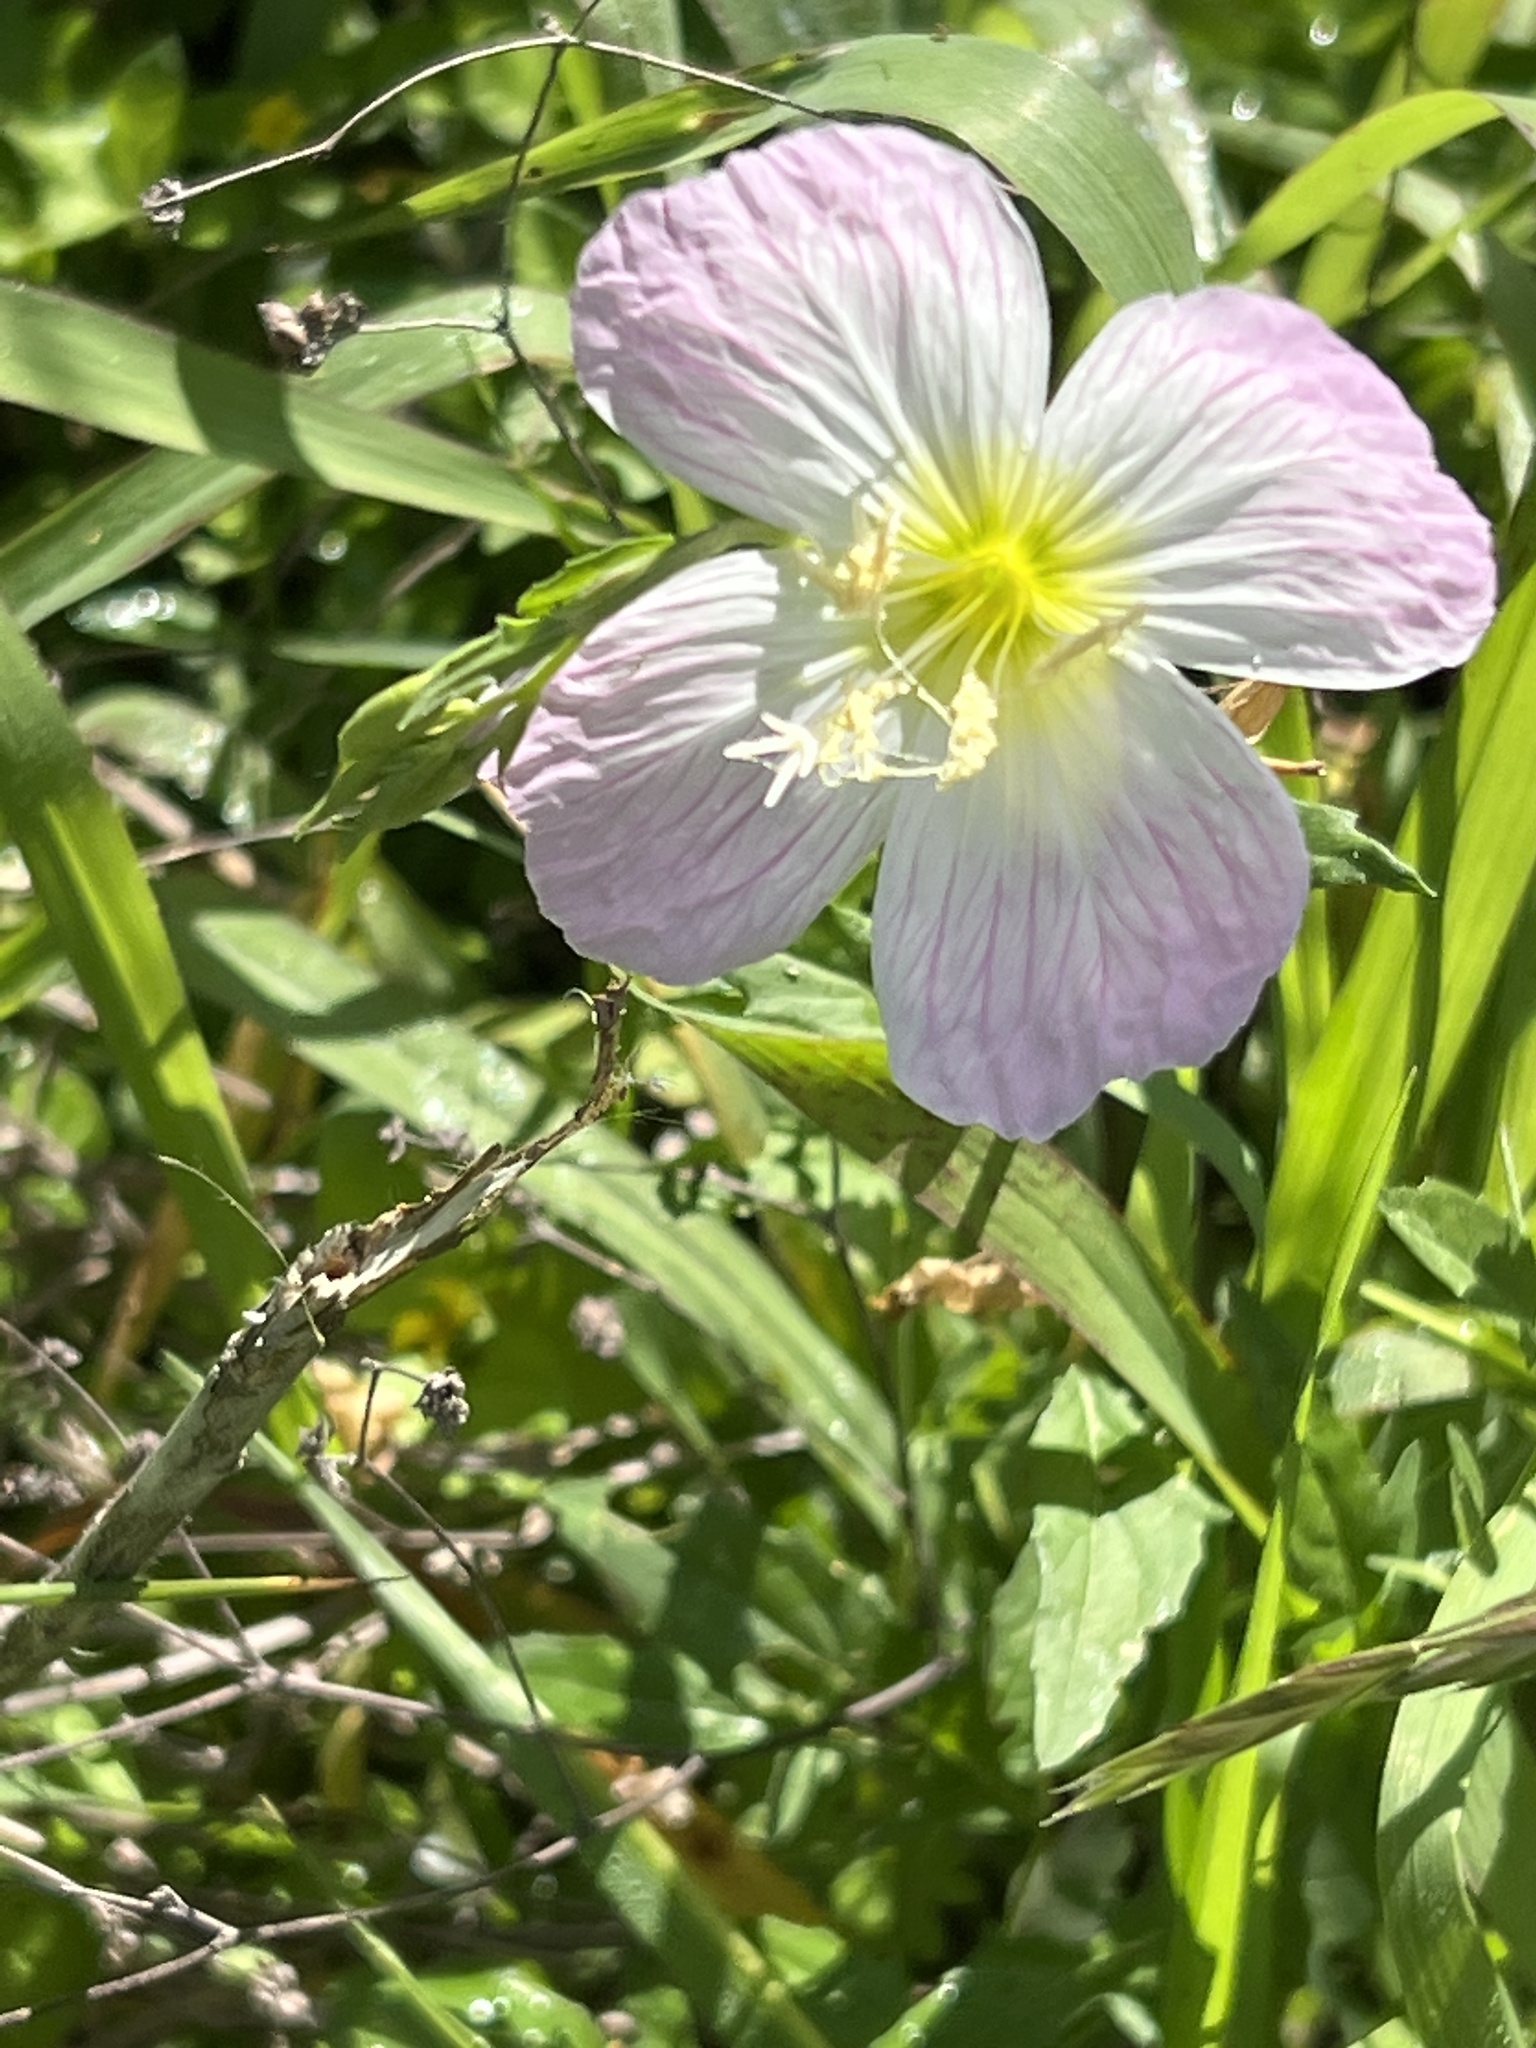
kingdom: Plantae
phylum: Tracheophyta
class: Magnoliopsida
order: Myrtales
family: Onagraceae
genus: Oenothera
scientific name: Oenothera speciosa
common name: White evening-primrose
